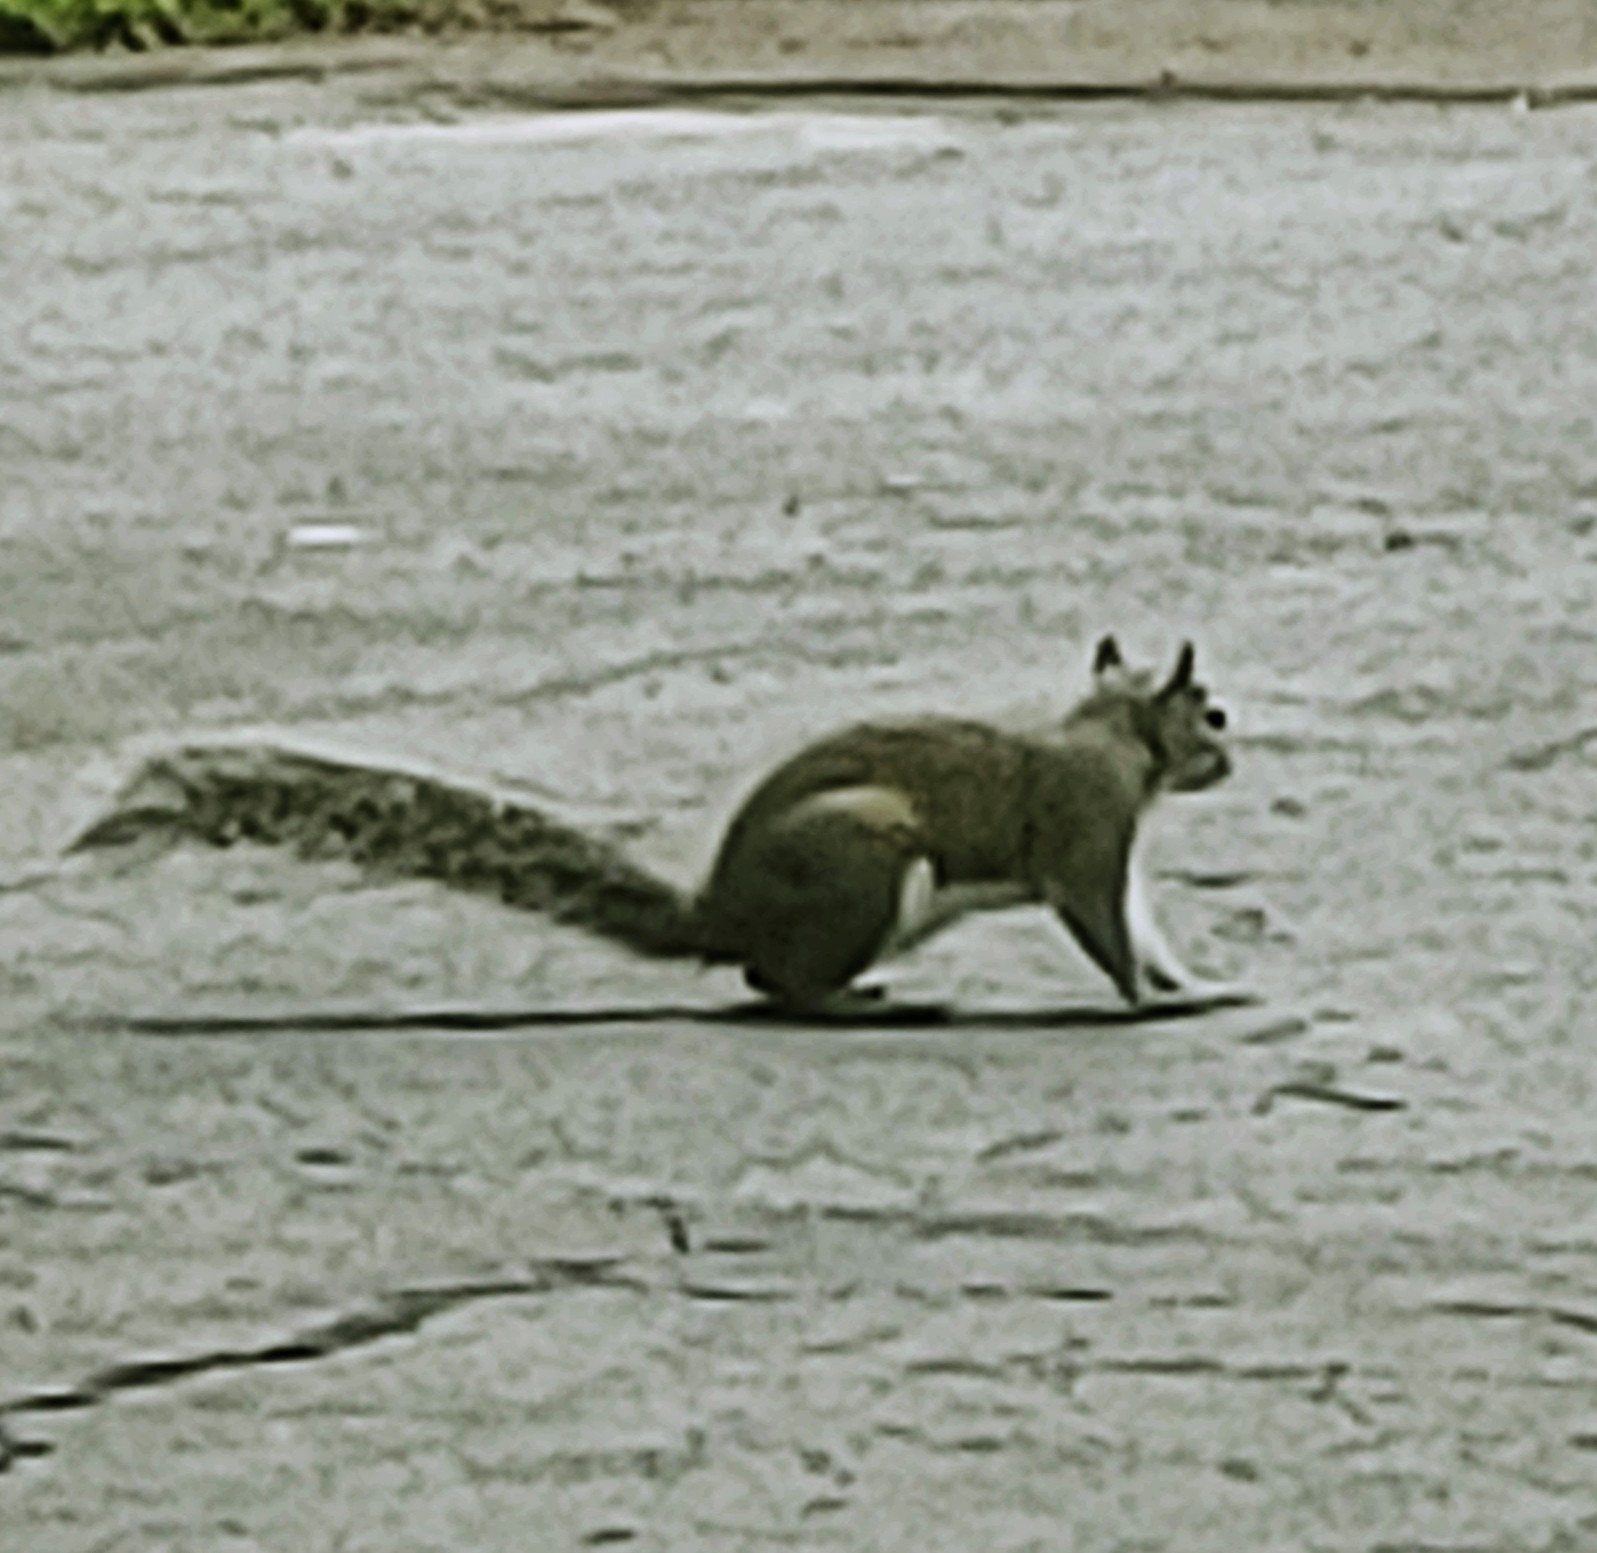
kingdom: Animalia
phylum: Chordata
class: Mammalia
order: Rodentia
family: Sciuridae
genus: Sciurus
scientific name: Sciurus carolinensis
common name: Eastern gray squirrel
